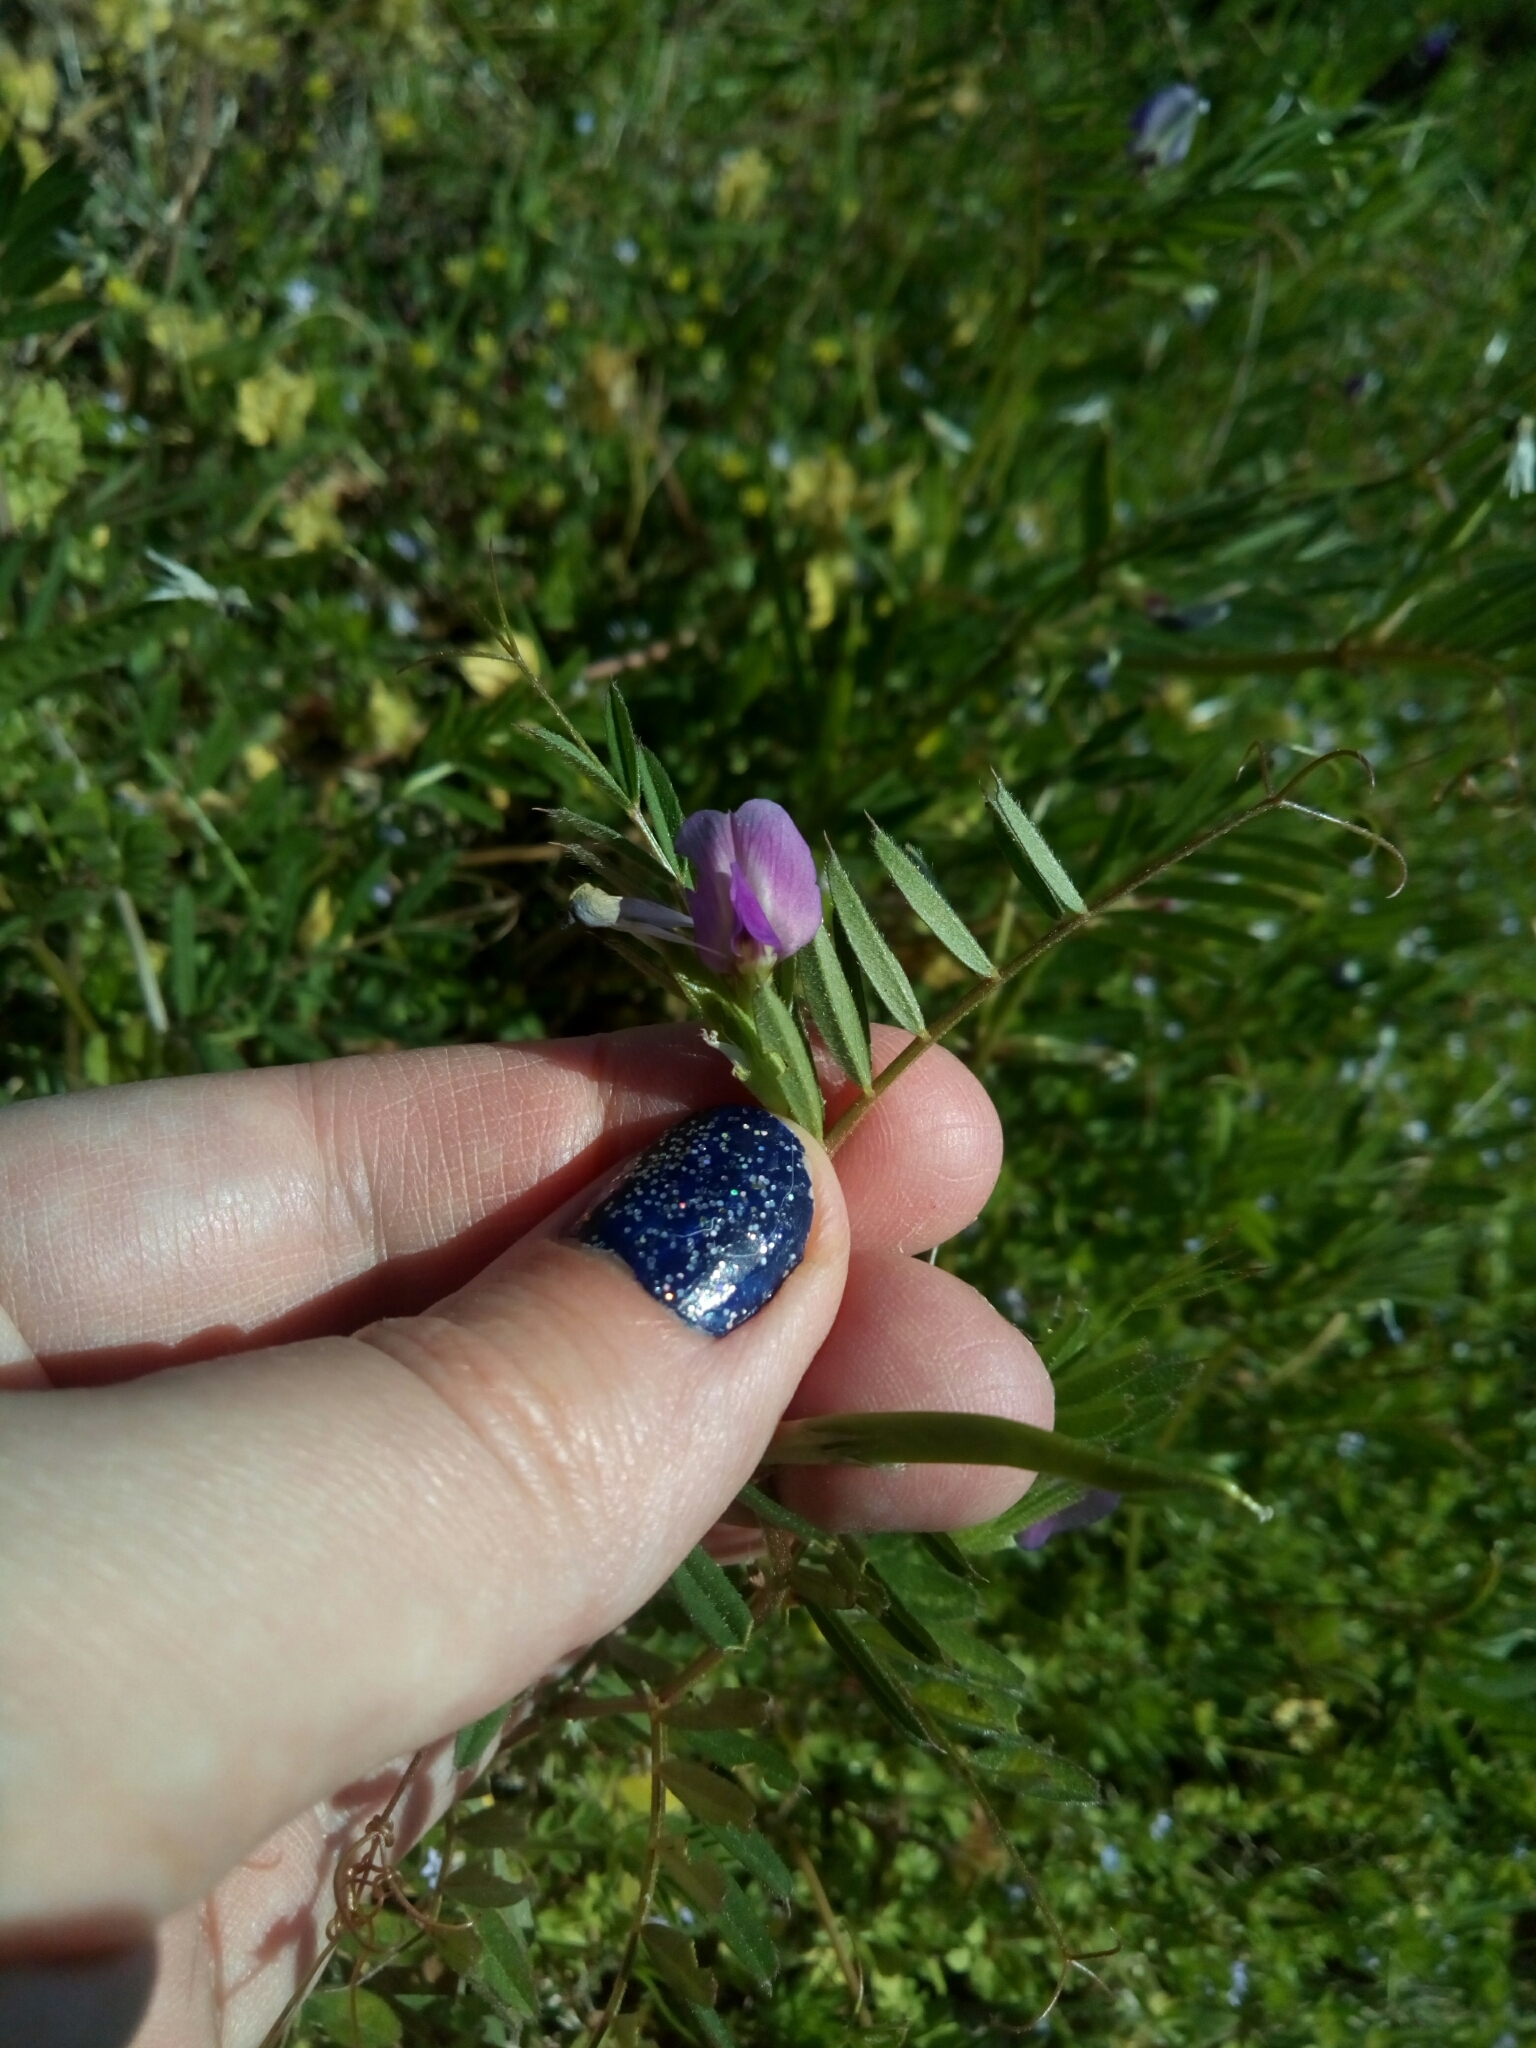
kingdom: Plantae
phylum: Tracheophyta
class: Magnoliopsida
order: Fabales
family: Fabaceae
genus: Vicia
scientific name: Vicia sativa
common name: Garden vetch
